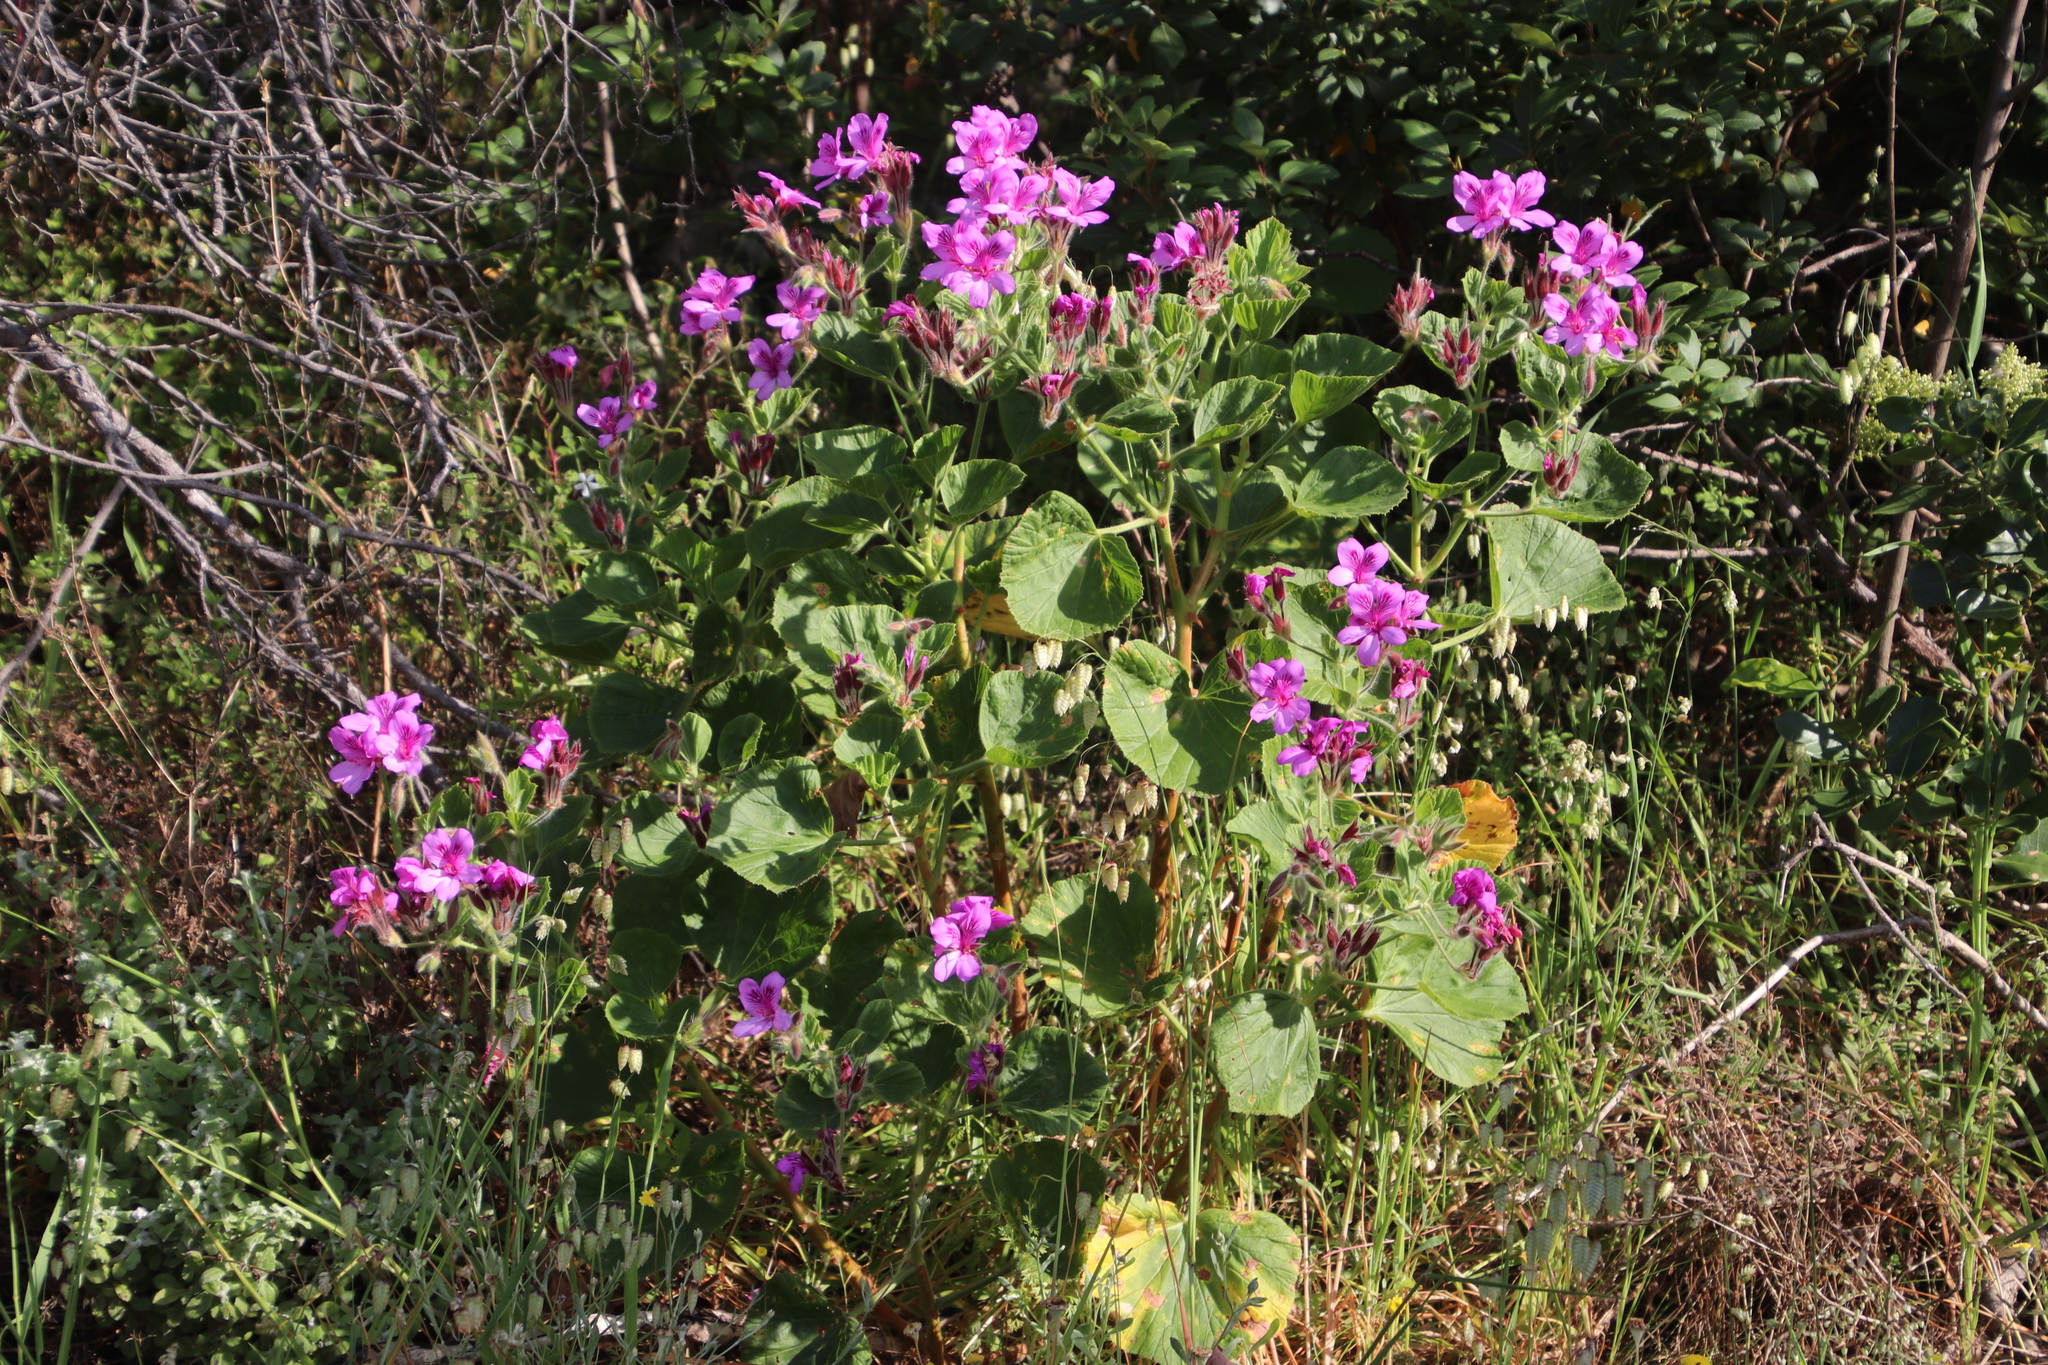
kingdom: Plantae
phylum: Tracheophyta
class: Magnoliopsida
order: Geraniales
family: Geraniaceae
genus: Pelargonium
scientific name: Pelargonium cucullatum
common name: Tree pelargonium
